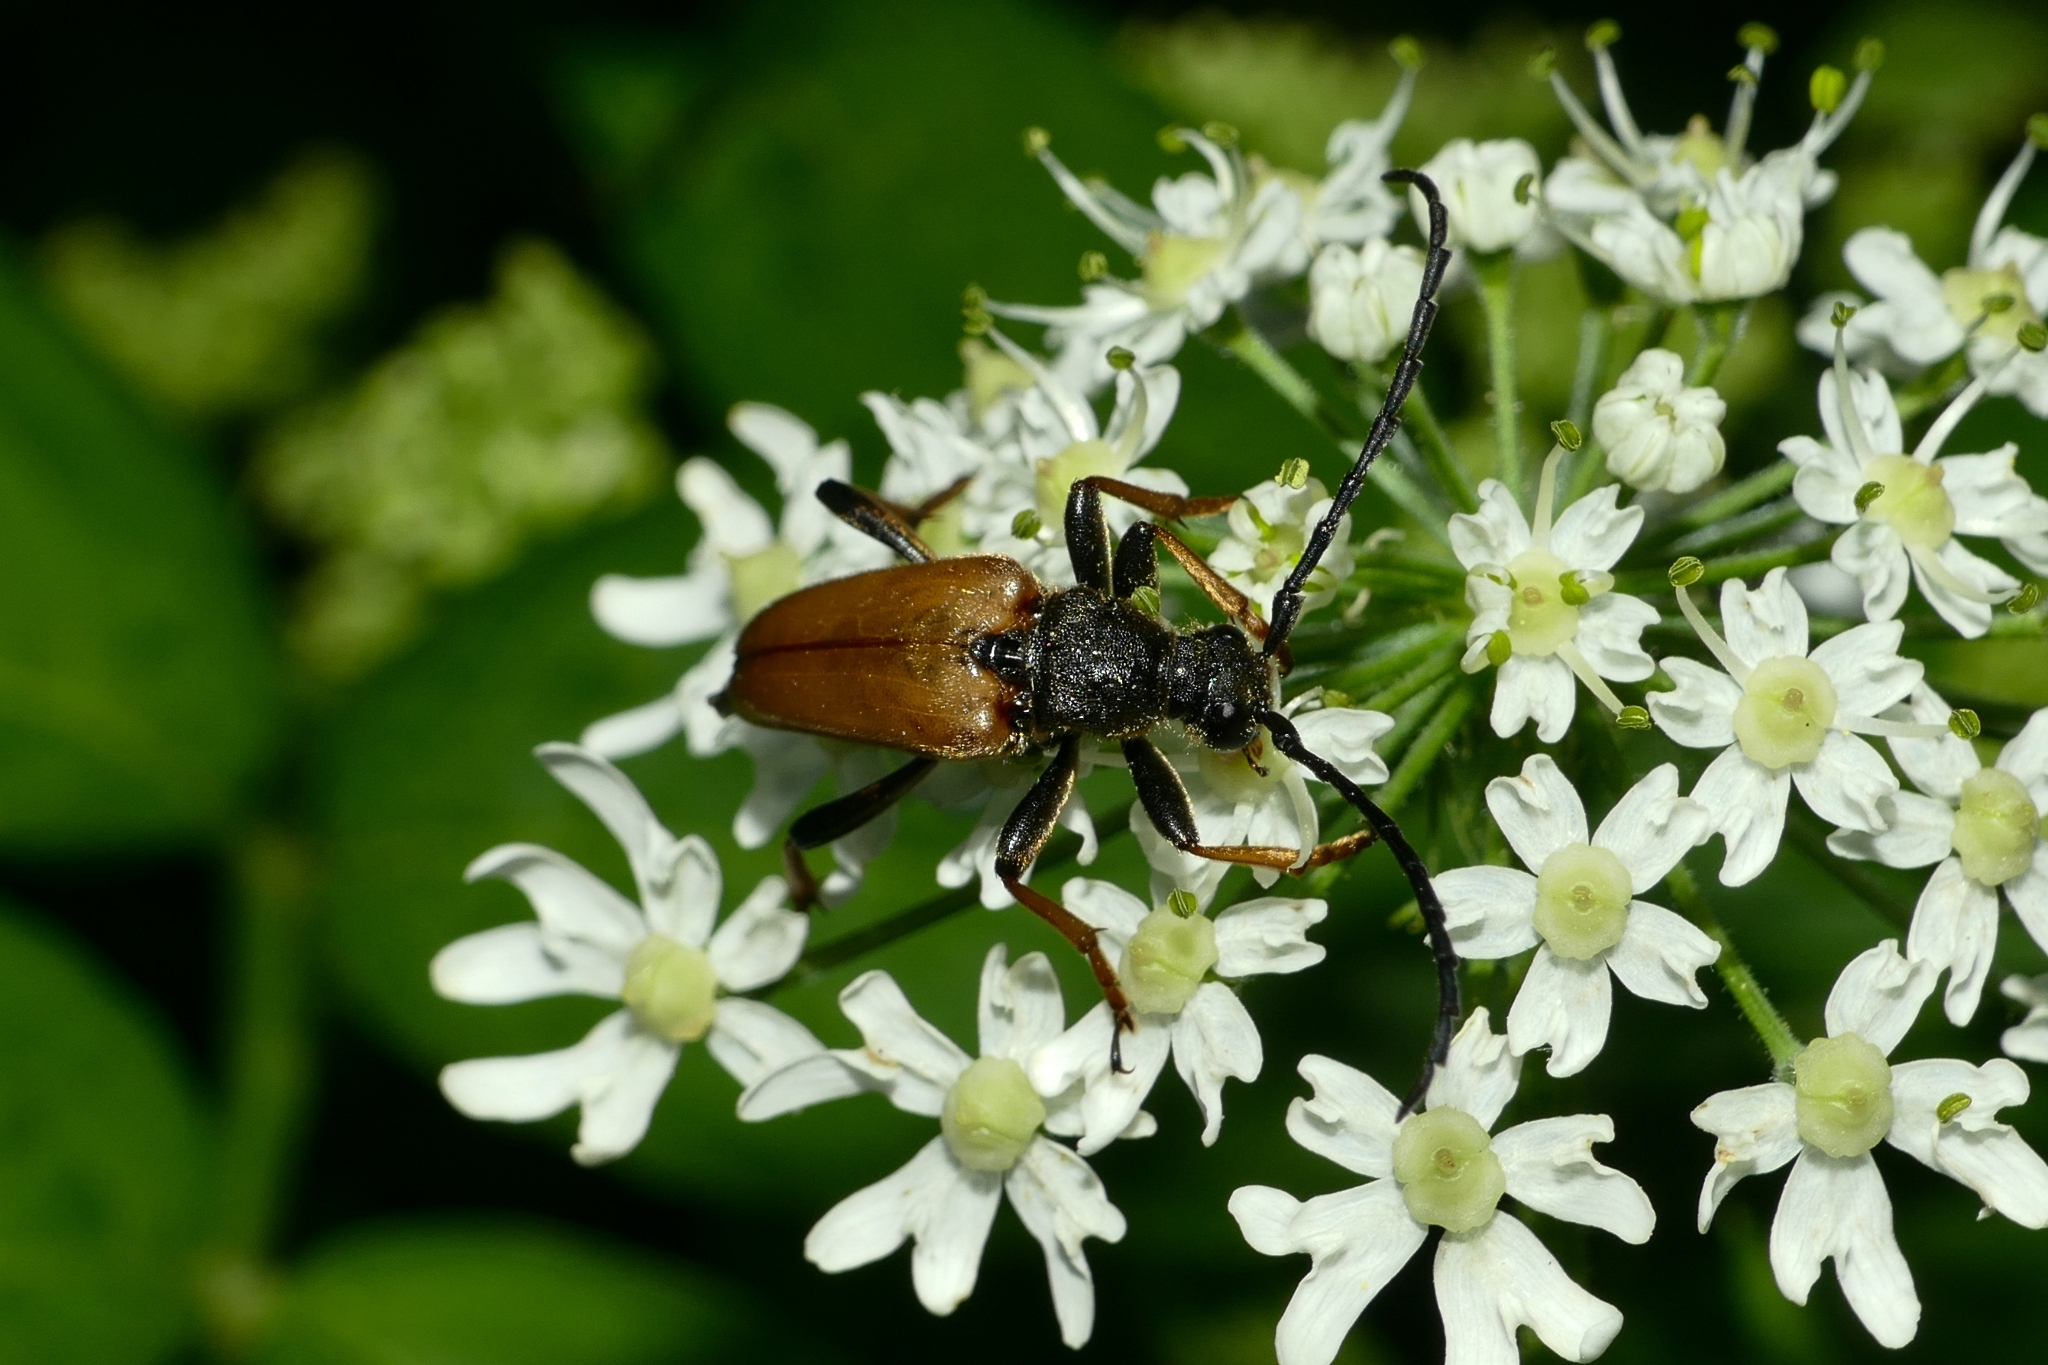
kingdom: Animalia
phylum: Arthropoda
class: Insecta
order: Coleoptera
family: Cerambycidae
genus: Stictoleptura
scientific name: Stictoleptura rubra
